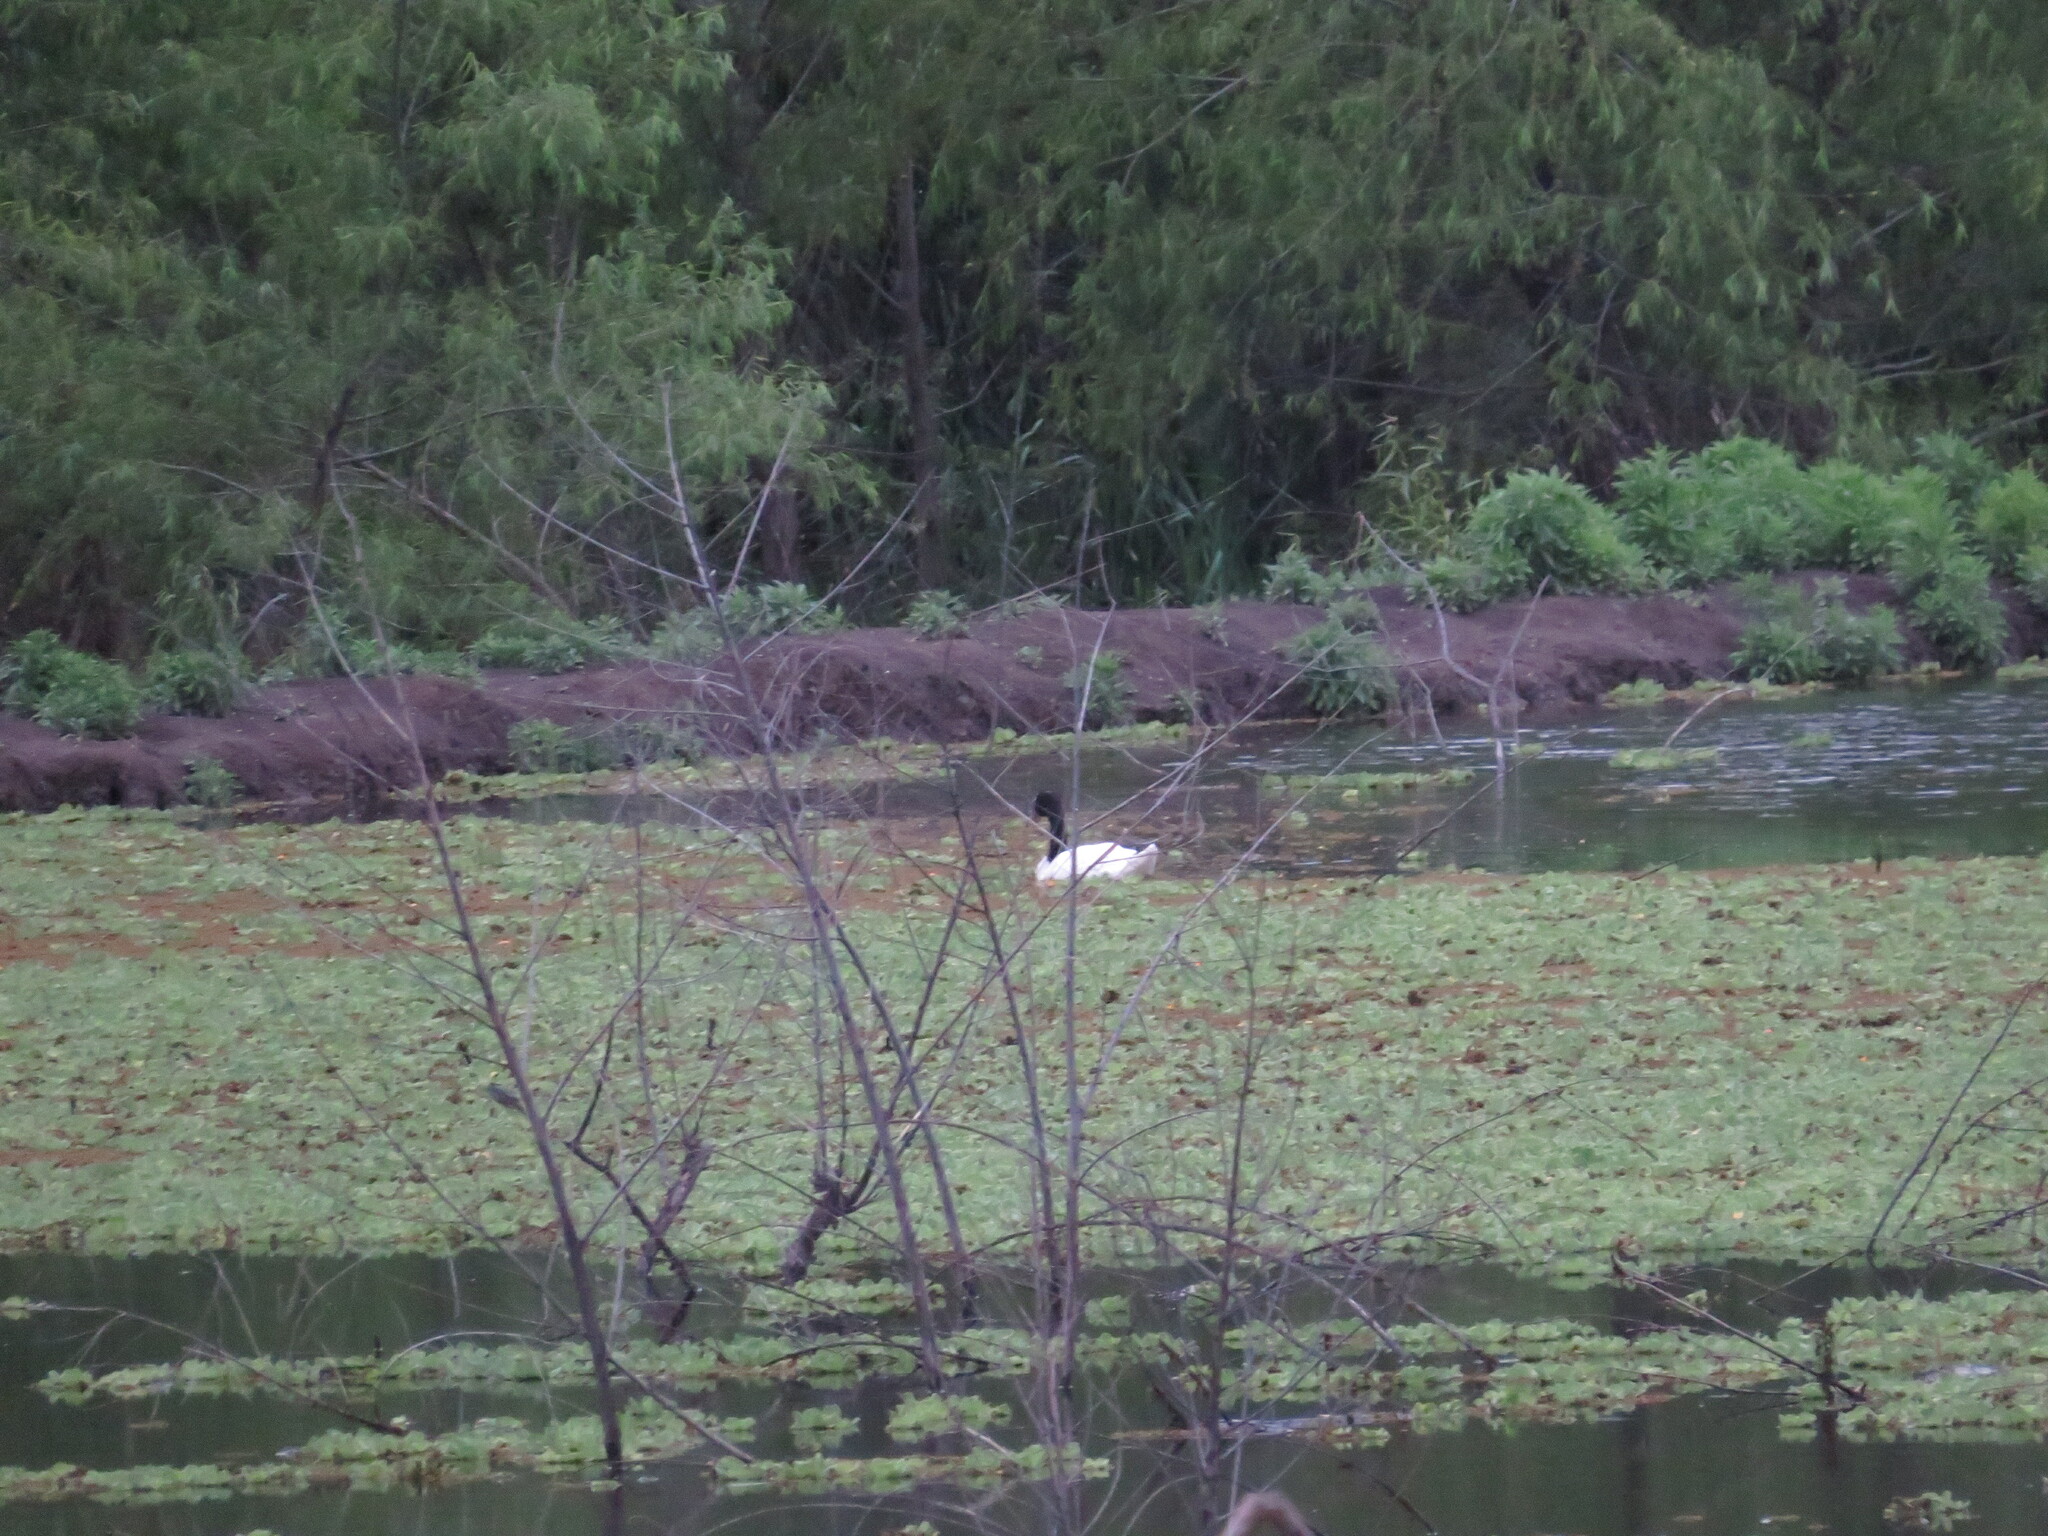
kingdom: Animalia
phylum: Chordata
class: Aves
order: Anseriformes
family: Anatidae
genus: Cygnus
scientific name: Cygnus melancoryphus
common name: Black-necked swan
